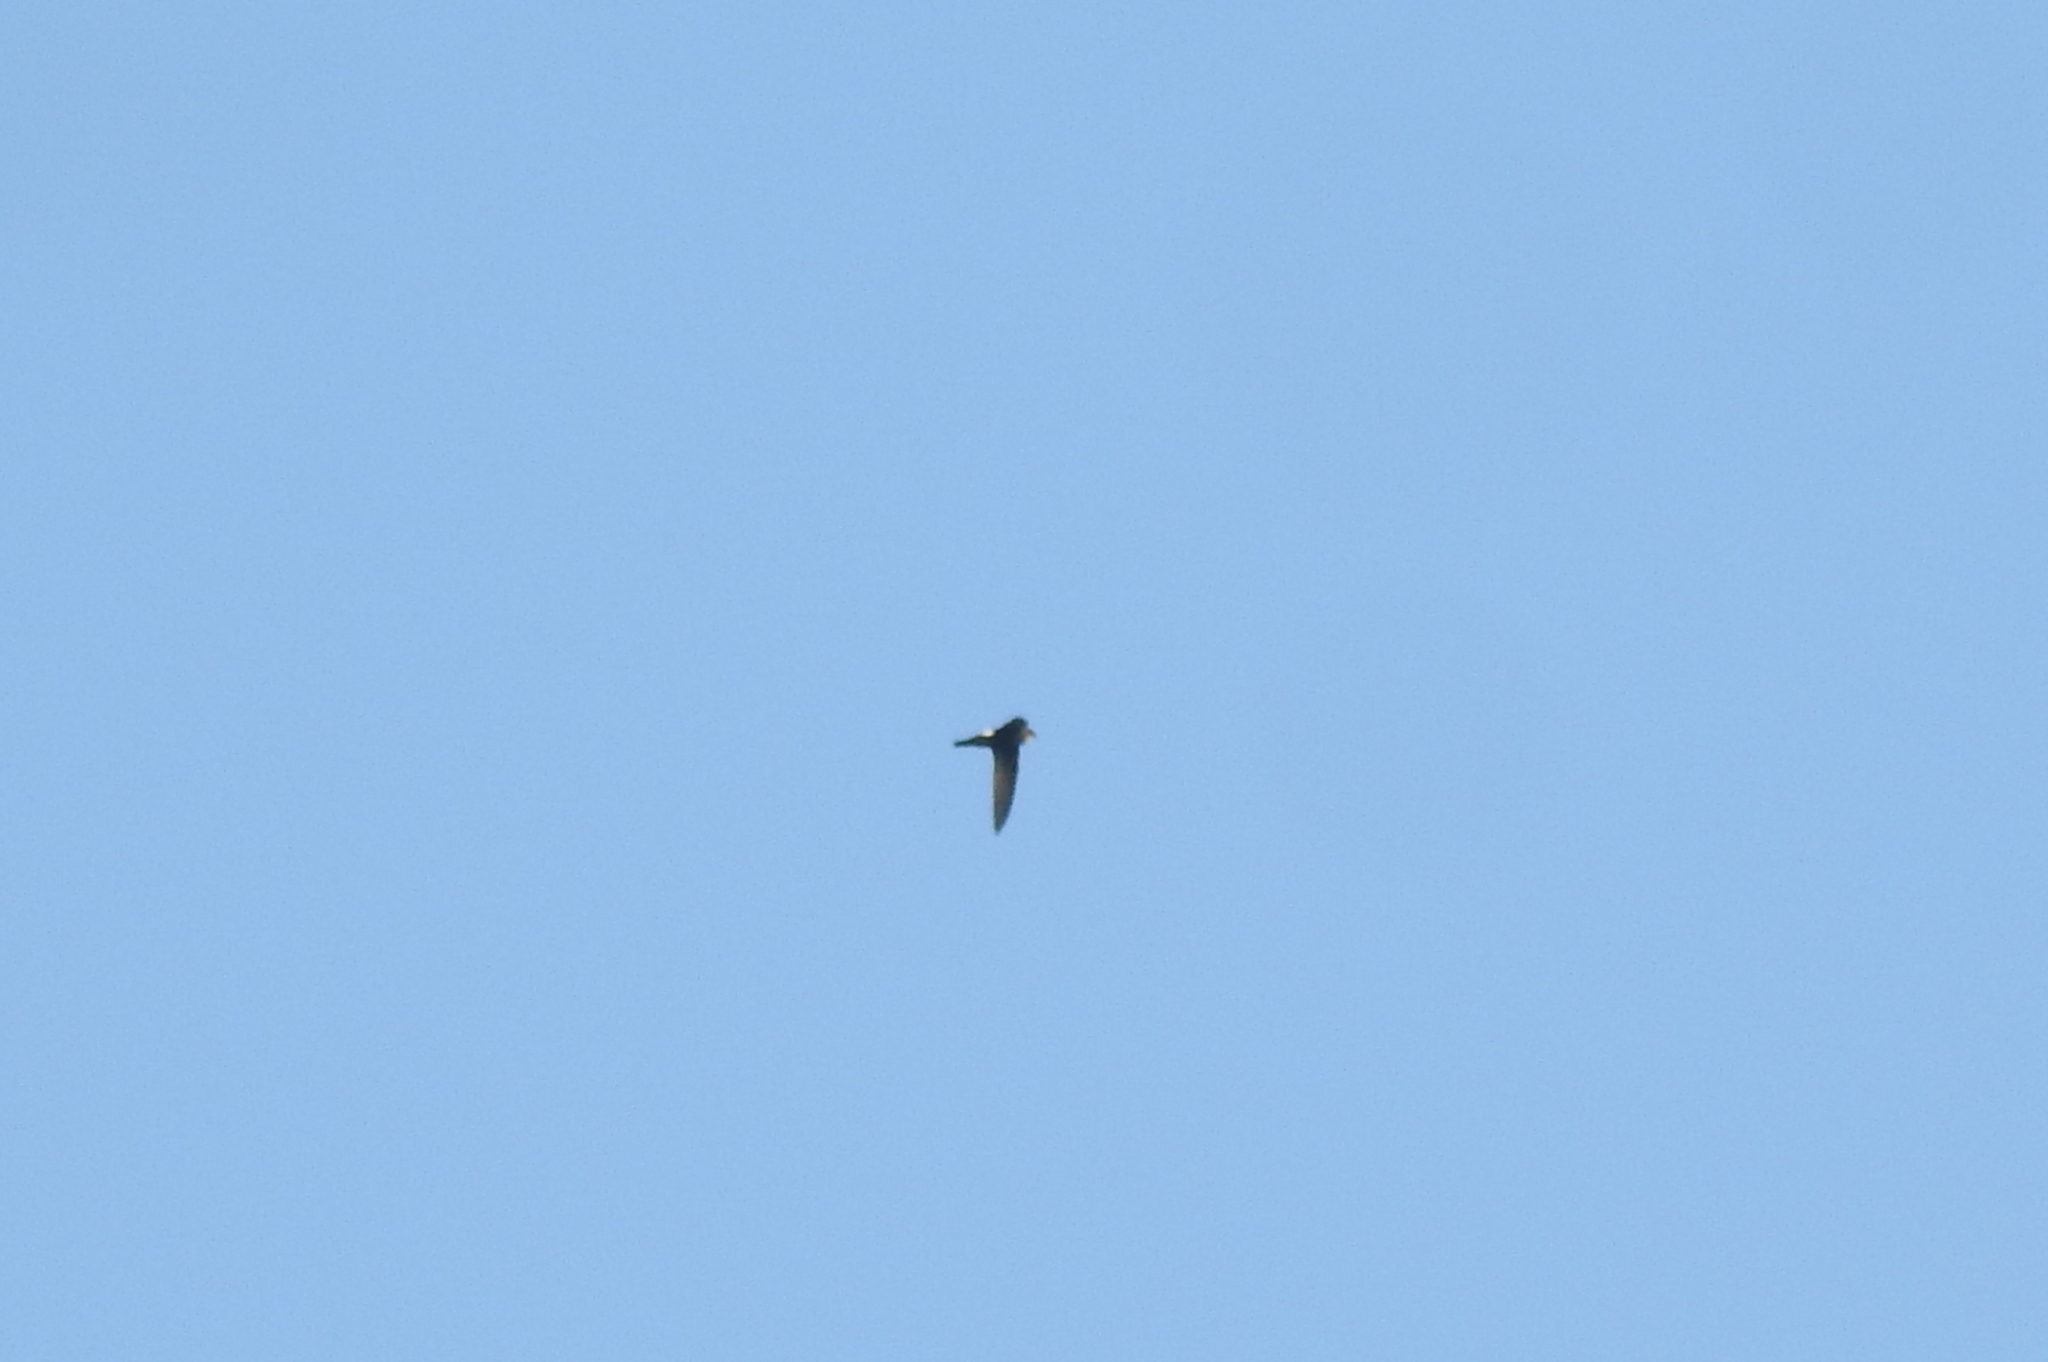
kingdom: Animalia
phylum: Chordata
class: Aves
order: Apodiformes
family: Apodidae
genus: Apus
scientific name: Apus affinis
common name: Little swift
